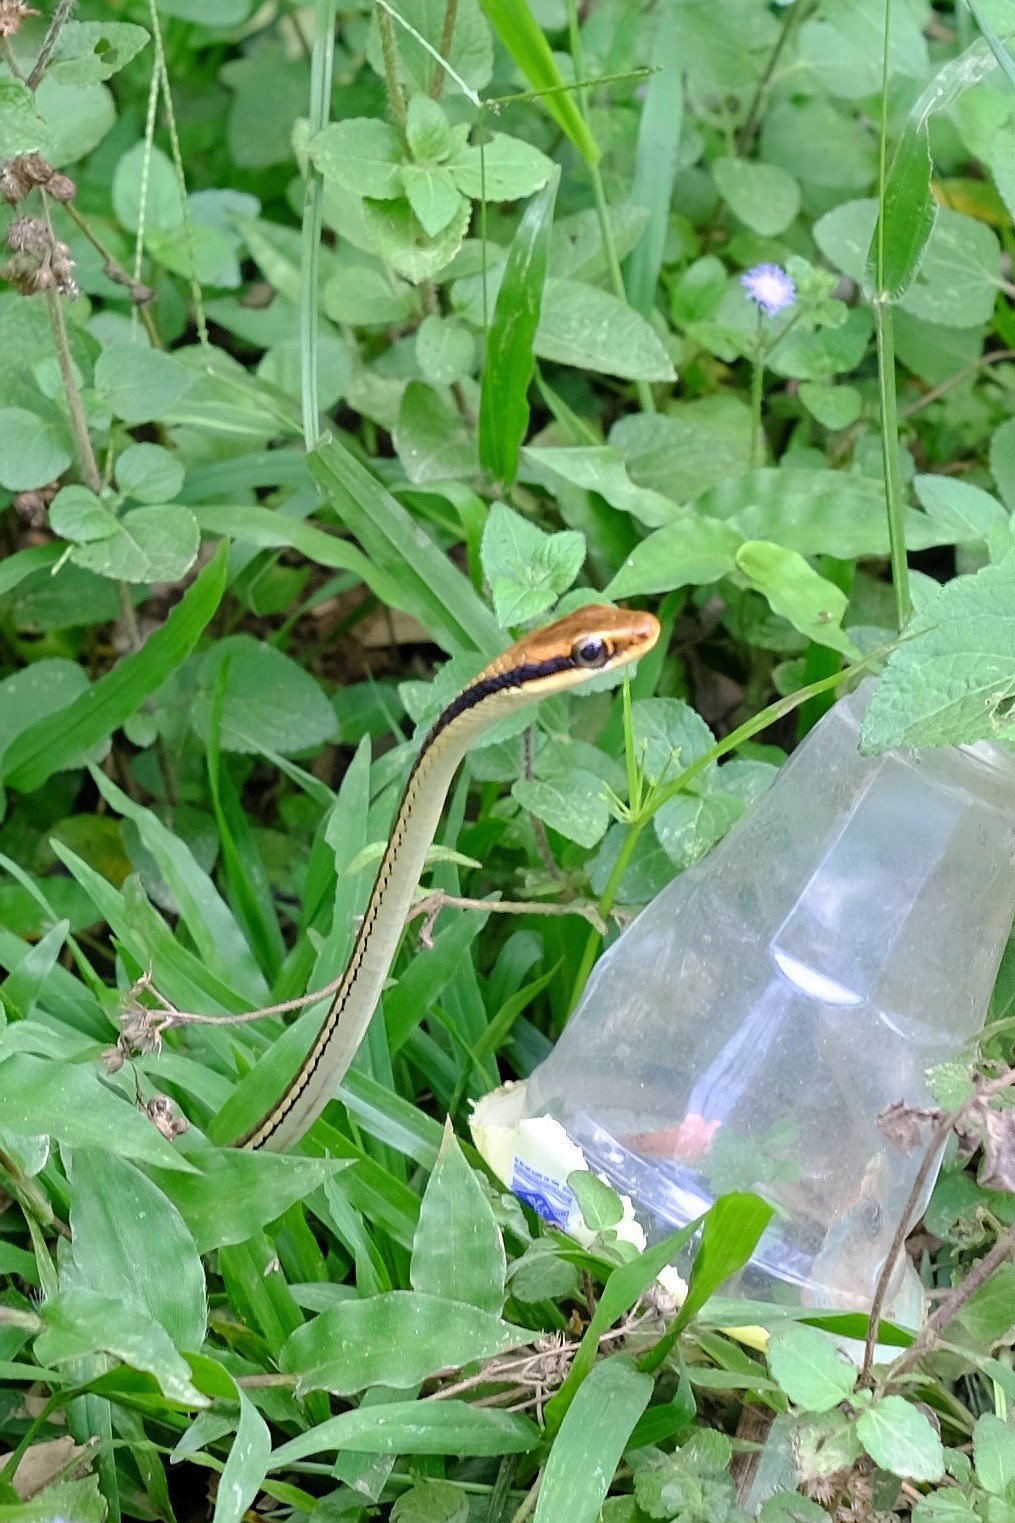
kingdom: Animalia
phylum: Chordata
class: Squamata
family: Colubridae
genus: Dendrelaphis
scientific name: Dendrelaphis pictus
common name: Indonesian bronze-back
